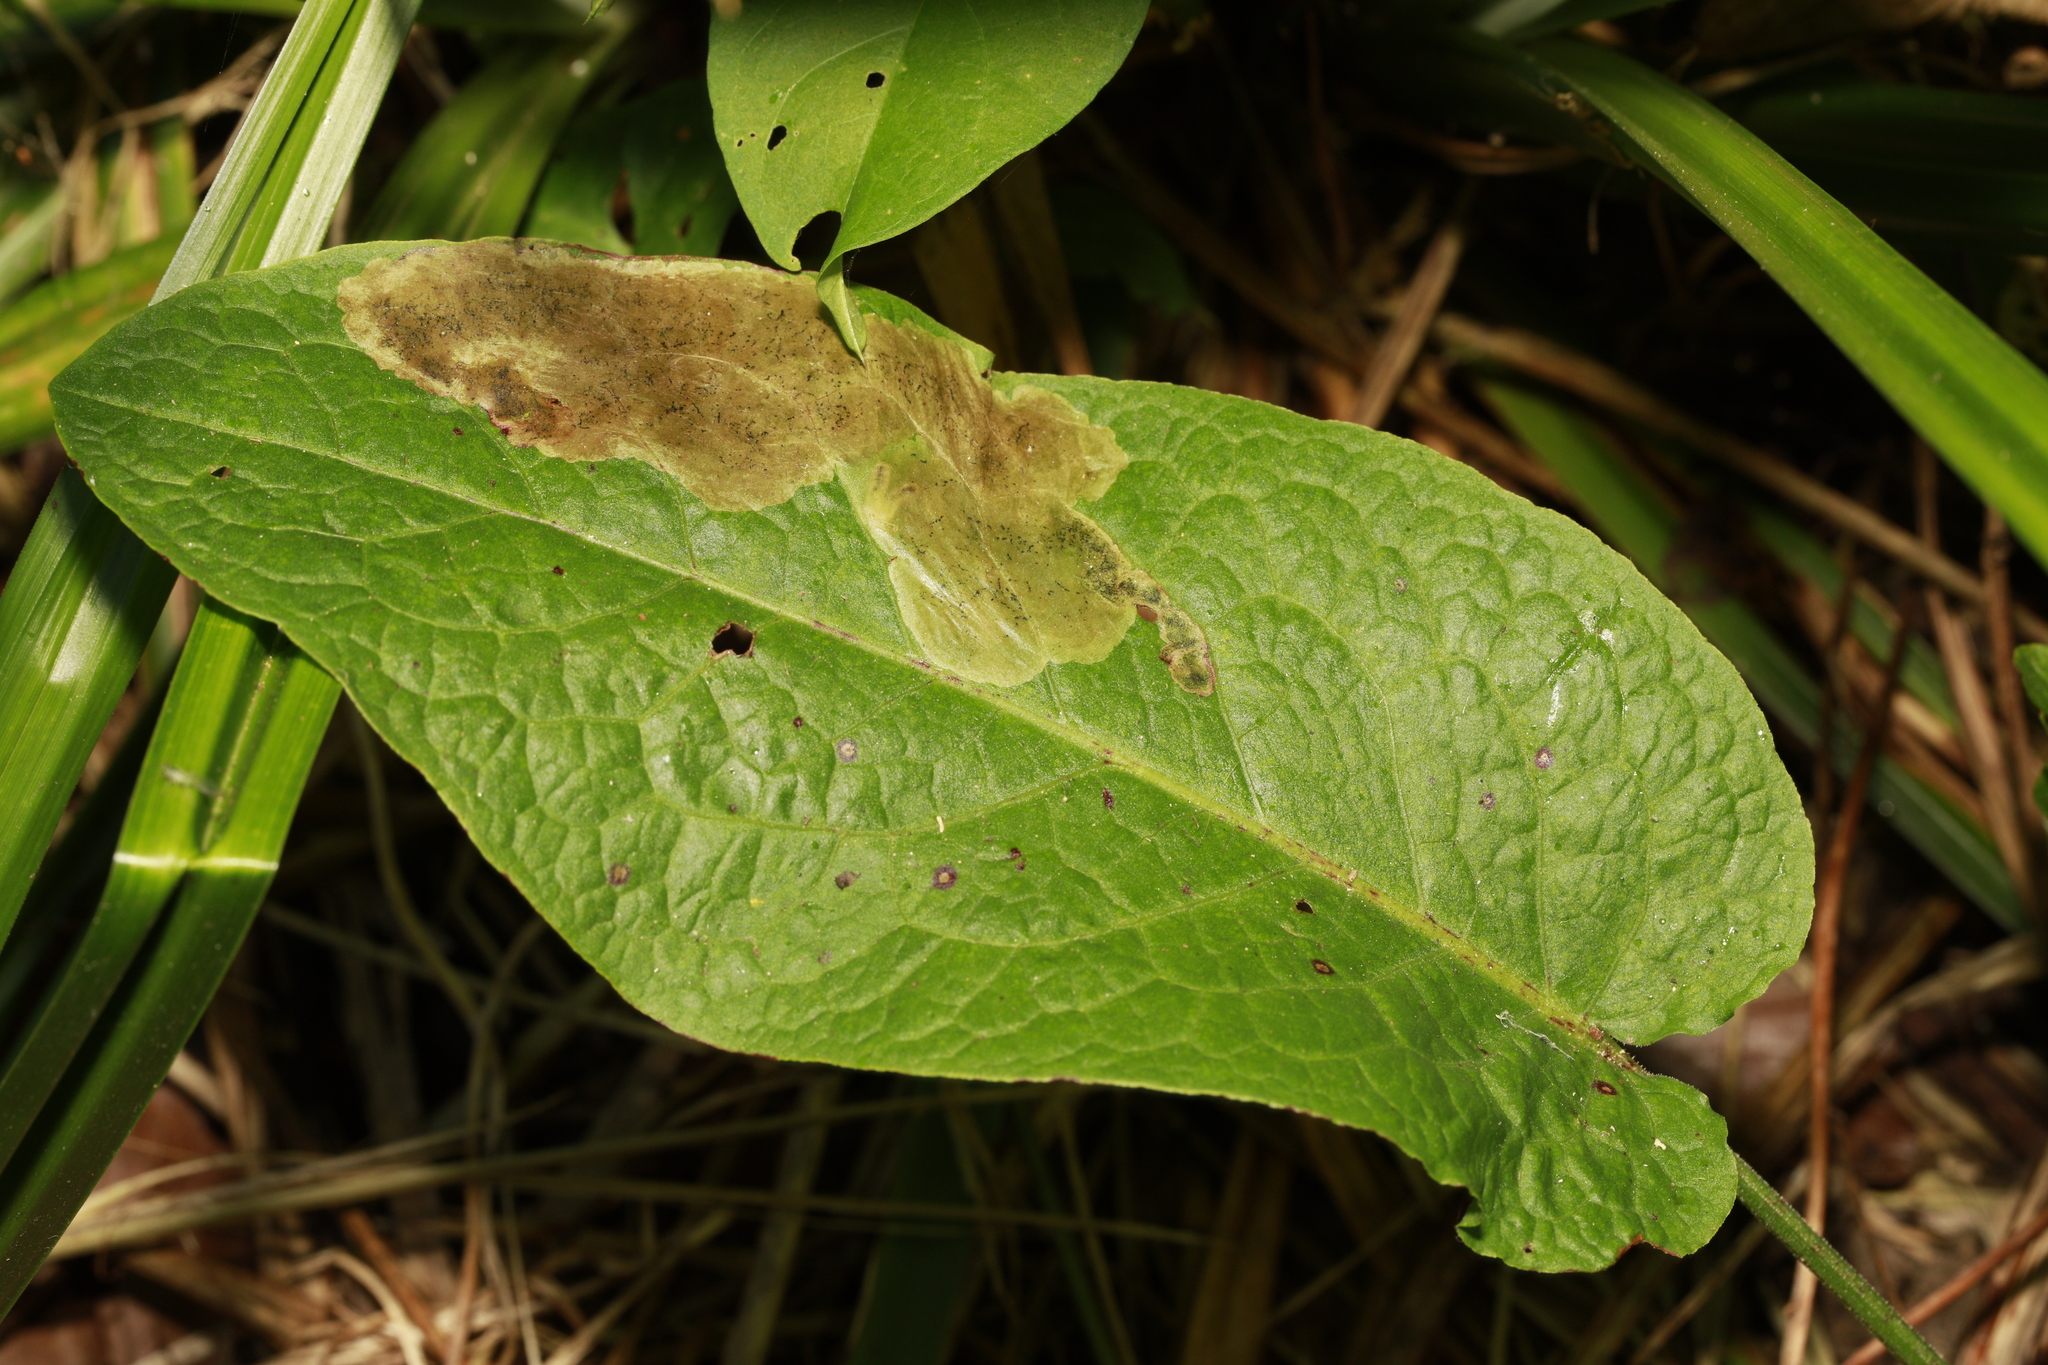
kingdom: Plantae
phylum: Tracheophyta
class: Magnoliopsida
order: Caryophyllales
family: Polygonaceae
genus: Rumex
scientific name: Rumex obtusifolius
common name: Bitter dock
